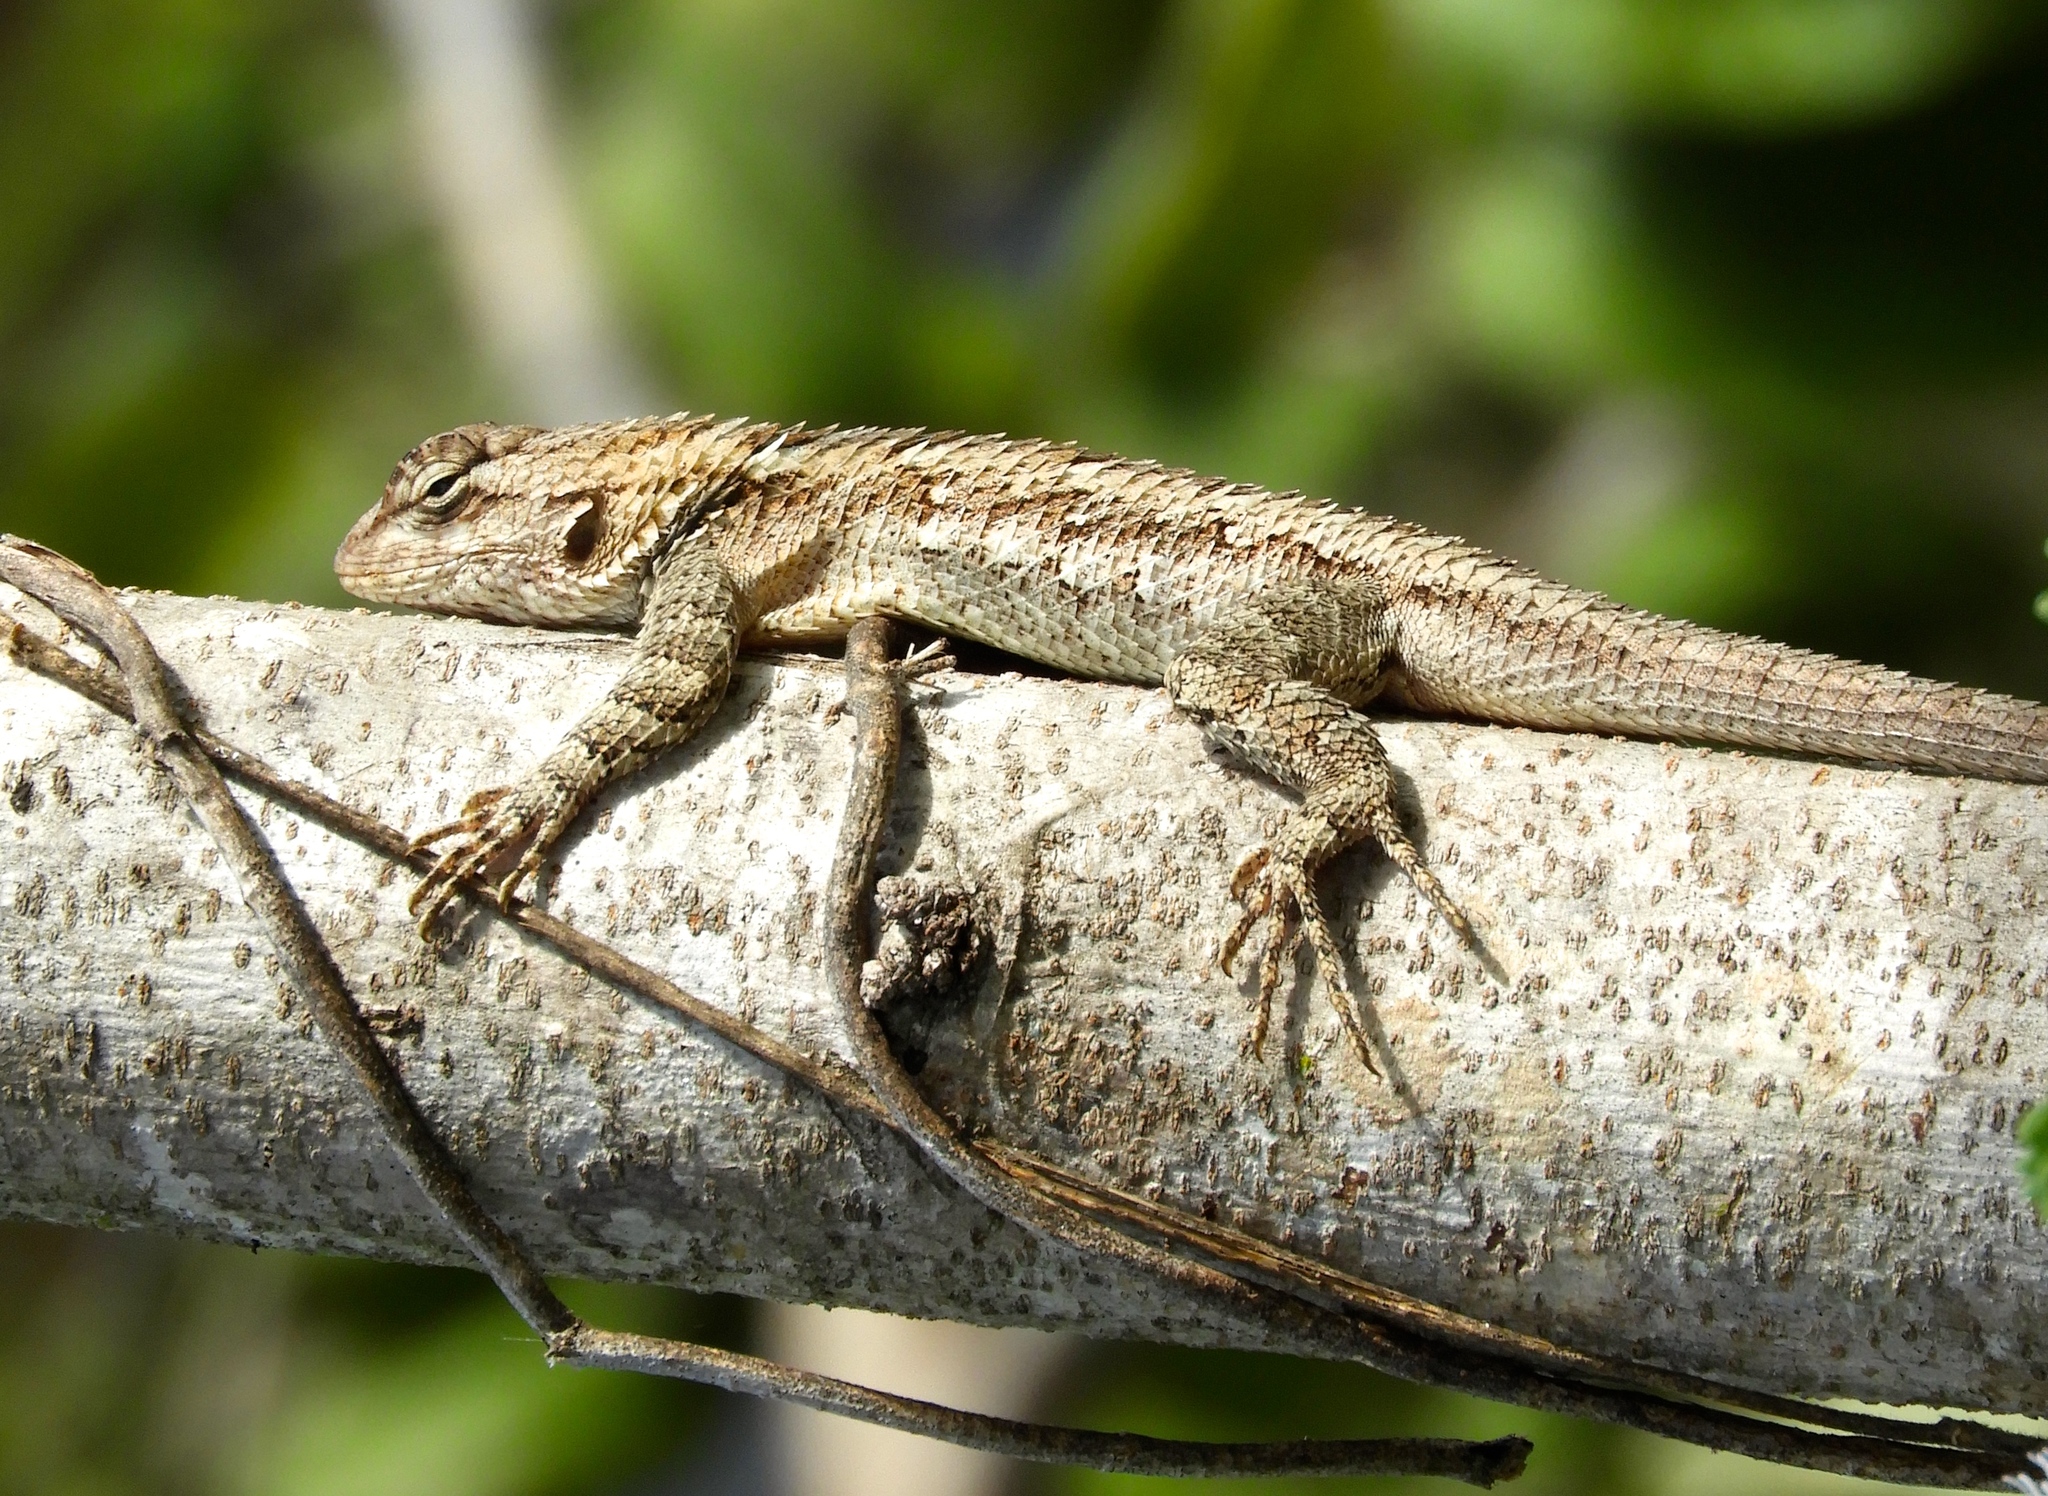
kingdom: Animalia
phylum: Chordata
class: Squamata
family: Phrynosomatidae
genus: Sceloporus
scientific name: Sceloporus clarkii
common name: Clark's spiny lizard
